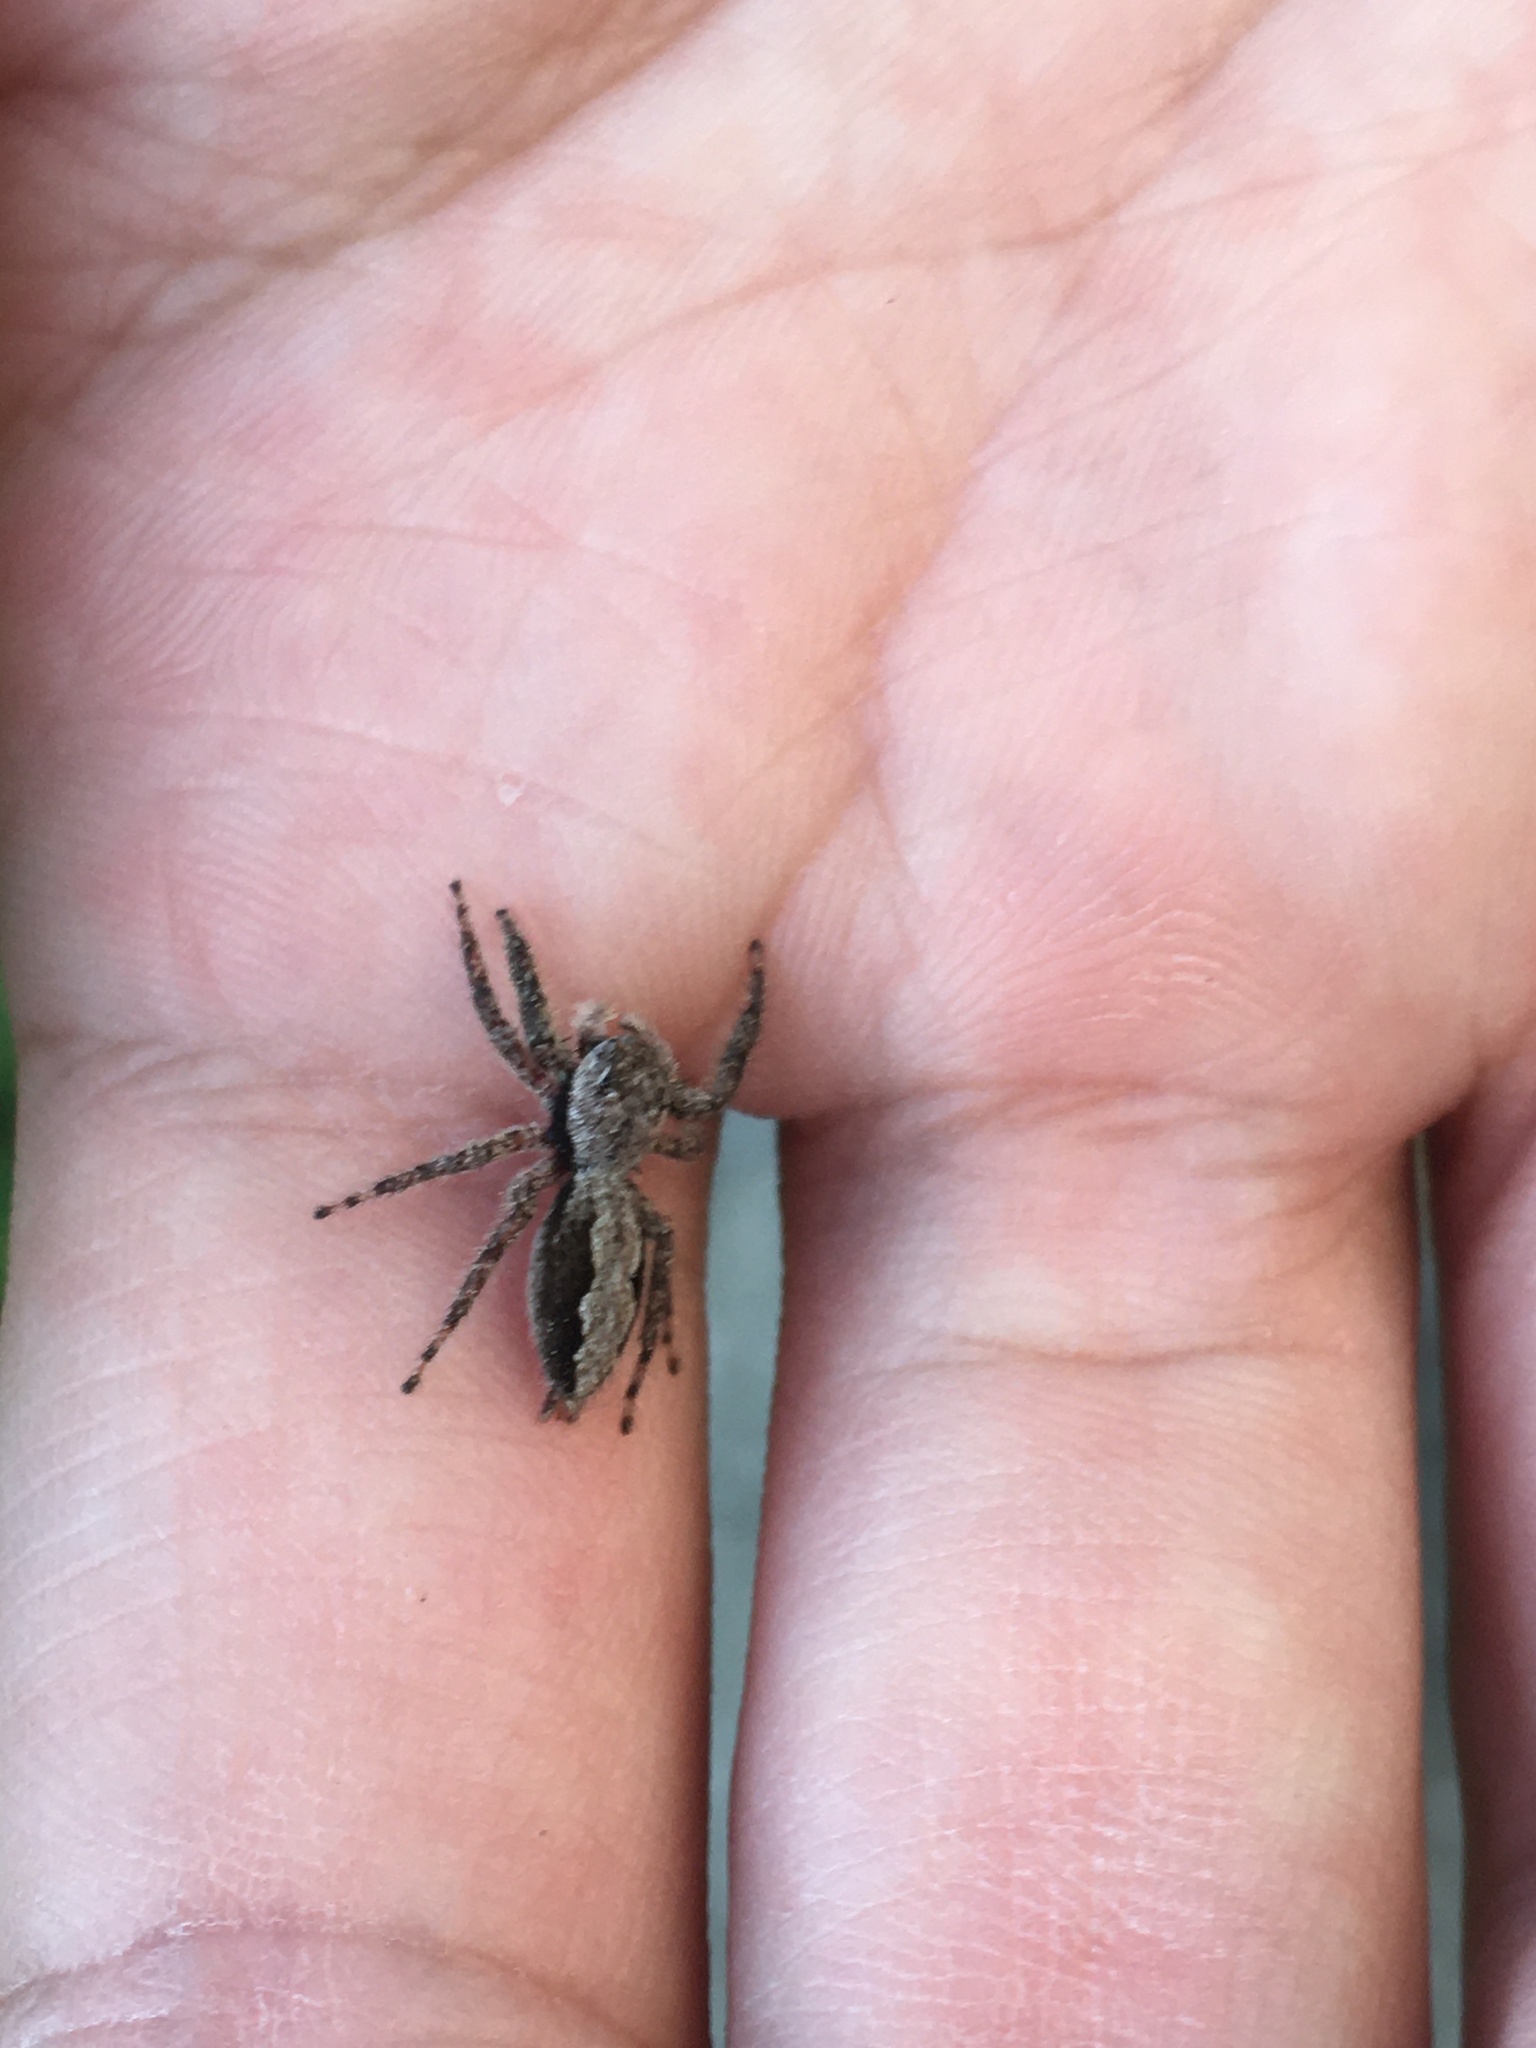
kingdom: Animalia
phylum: Arthropoda
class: Arachnida
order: Araneae
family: Salticidae
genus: Platycryptus
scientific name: Platycryptus undatus
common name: Tan jumping spider
